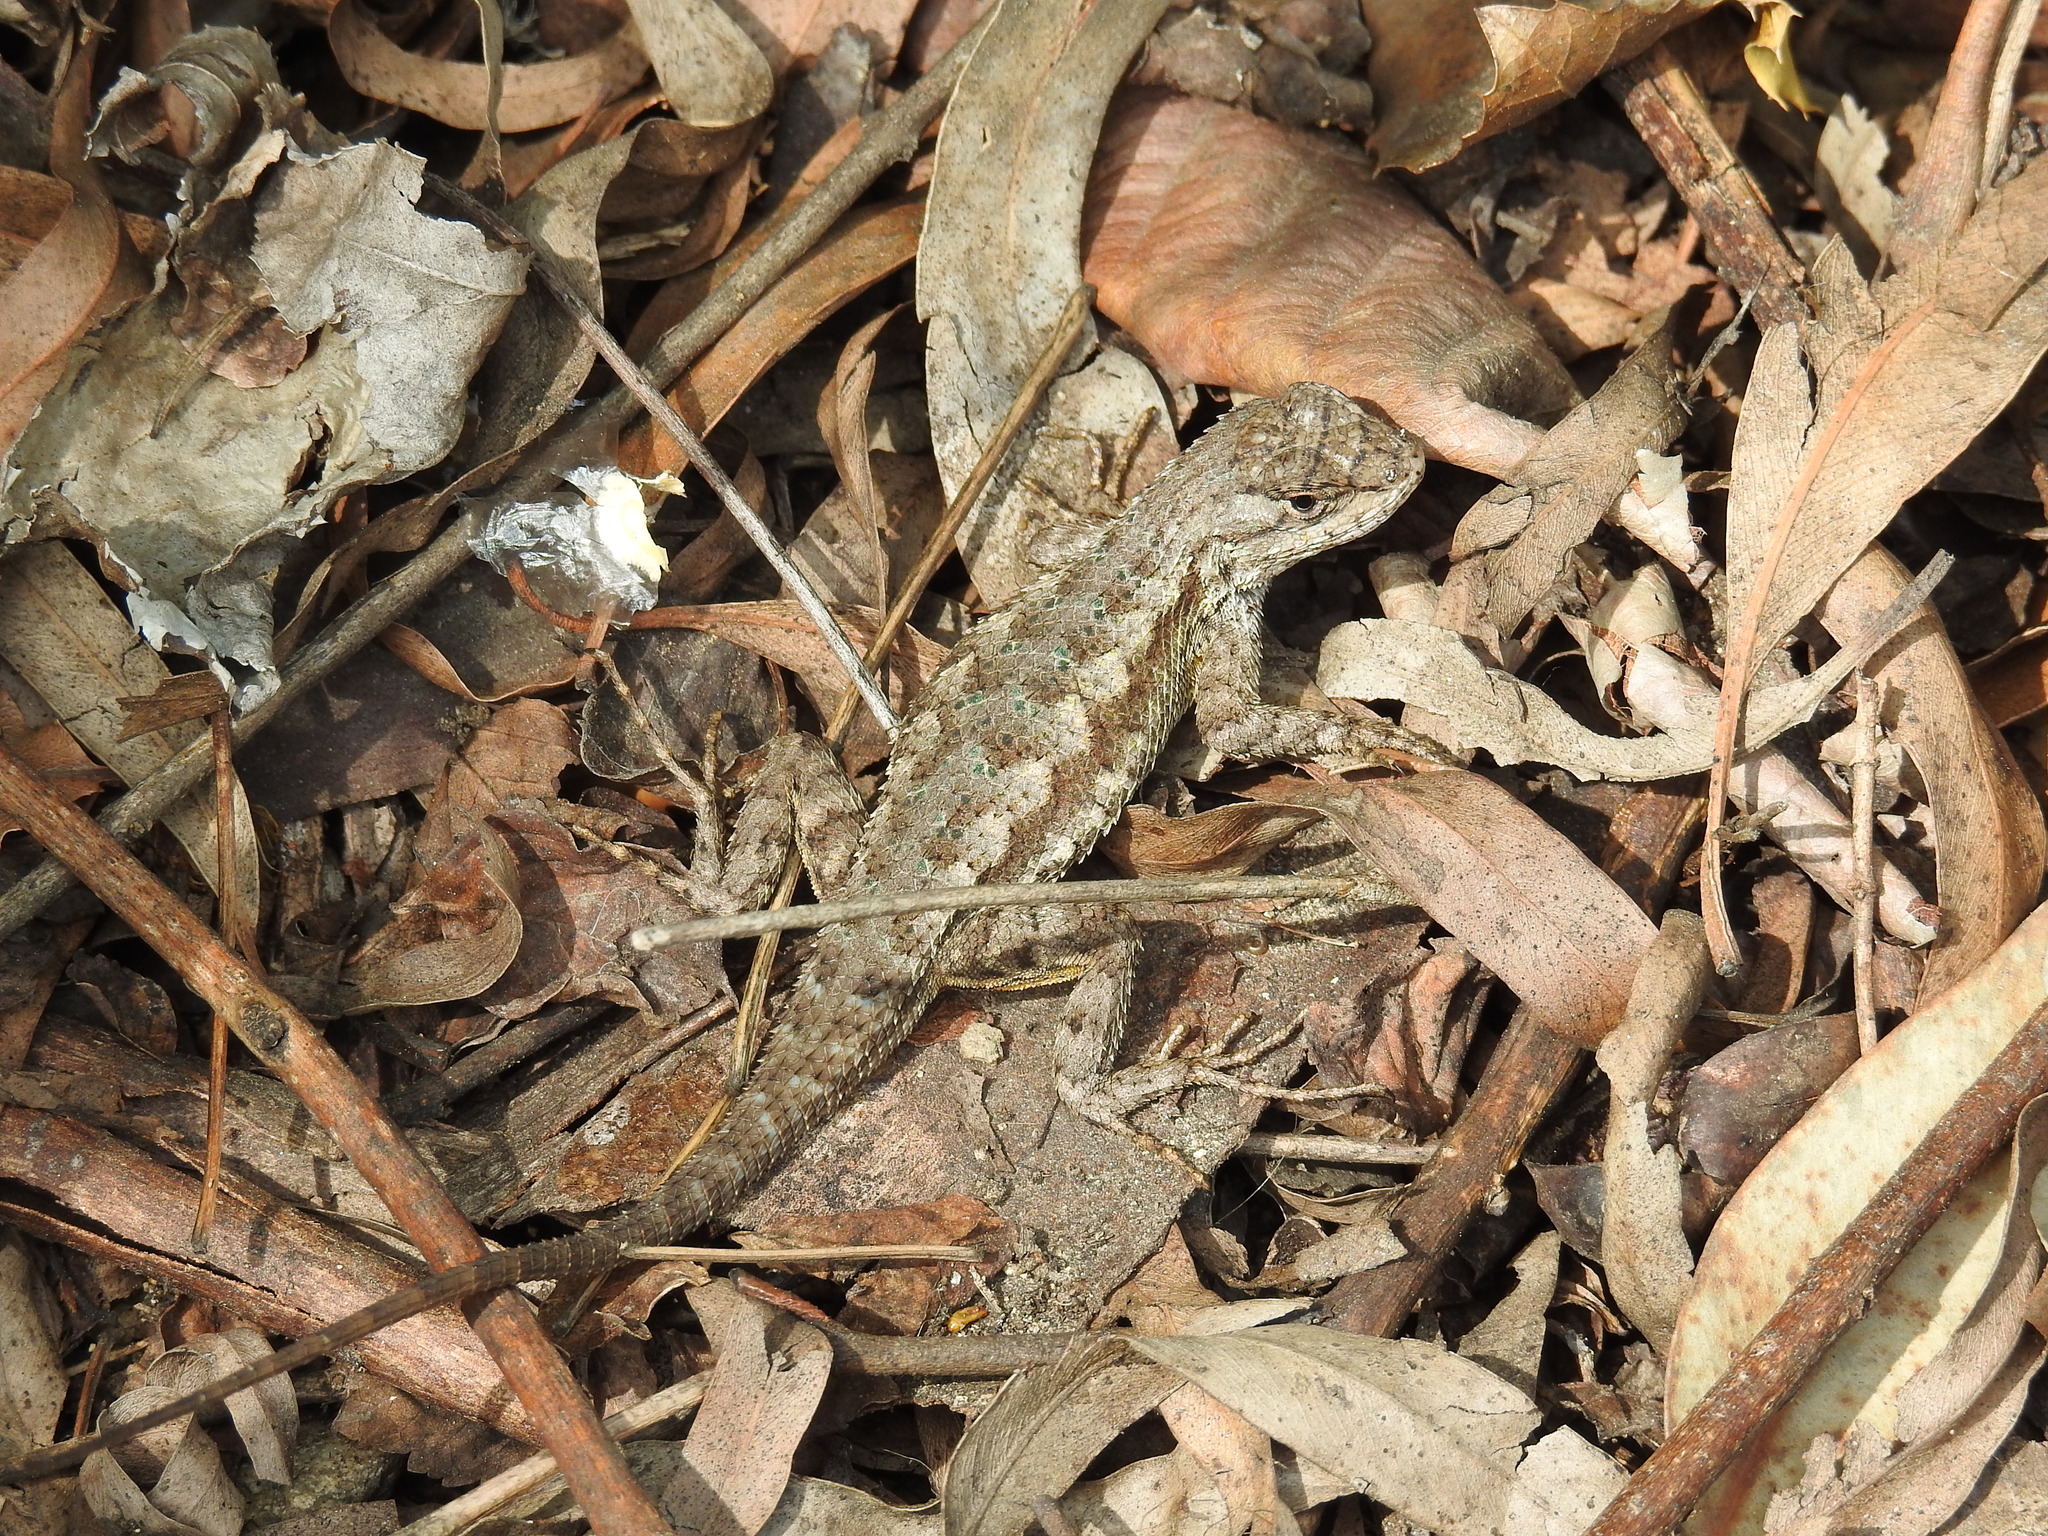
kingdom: Animalia
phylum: Chordata
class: Squamata
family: Phrynosomatidae
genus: Sceloporus
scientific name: Sceloporus occidentalis
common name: Western fence lizard
